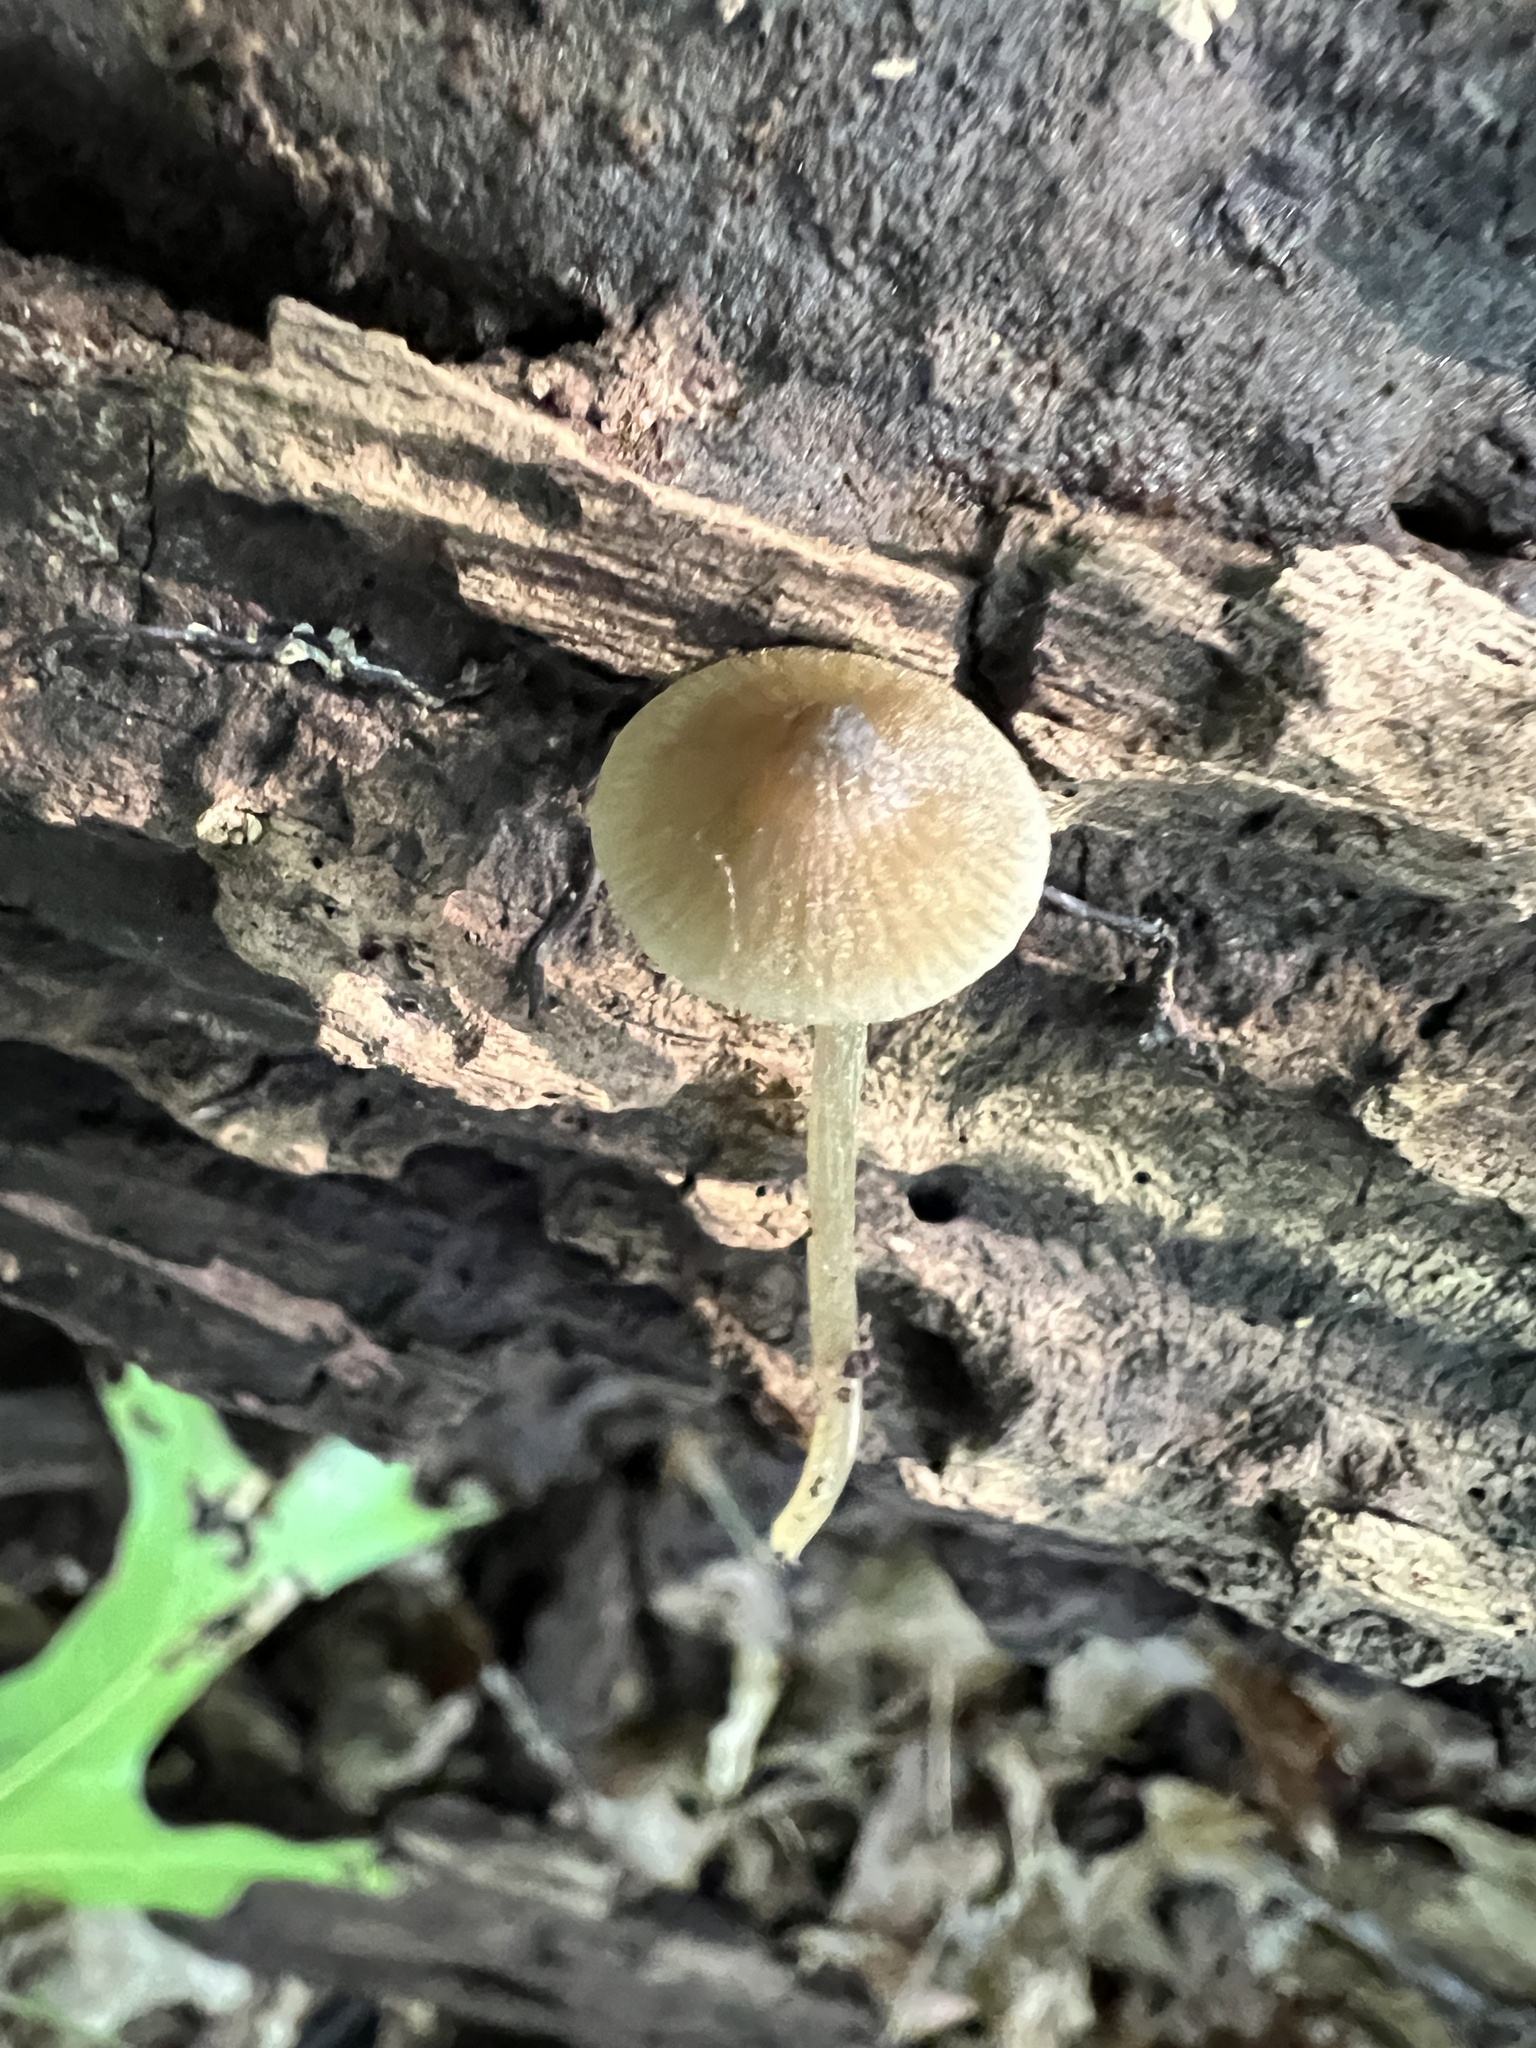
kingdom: Fungi
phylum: Basidiomycota
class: Agaricomycetes
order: Agaricales
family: Entolomataceae
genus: Entoloma
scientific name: Entoloma cuspidiferum
